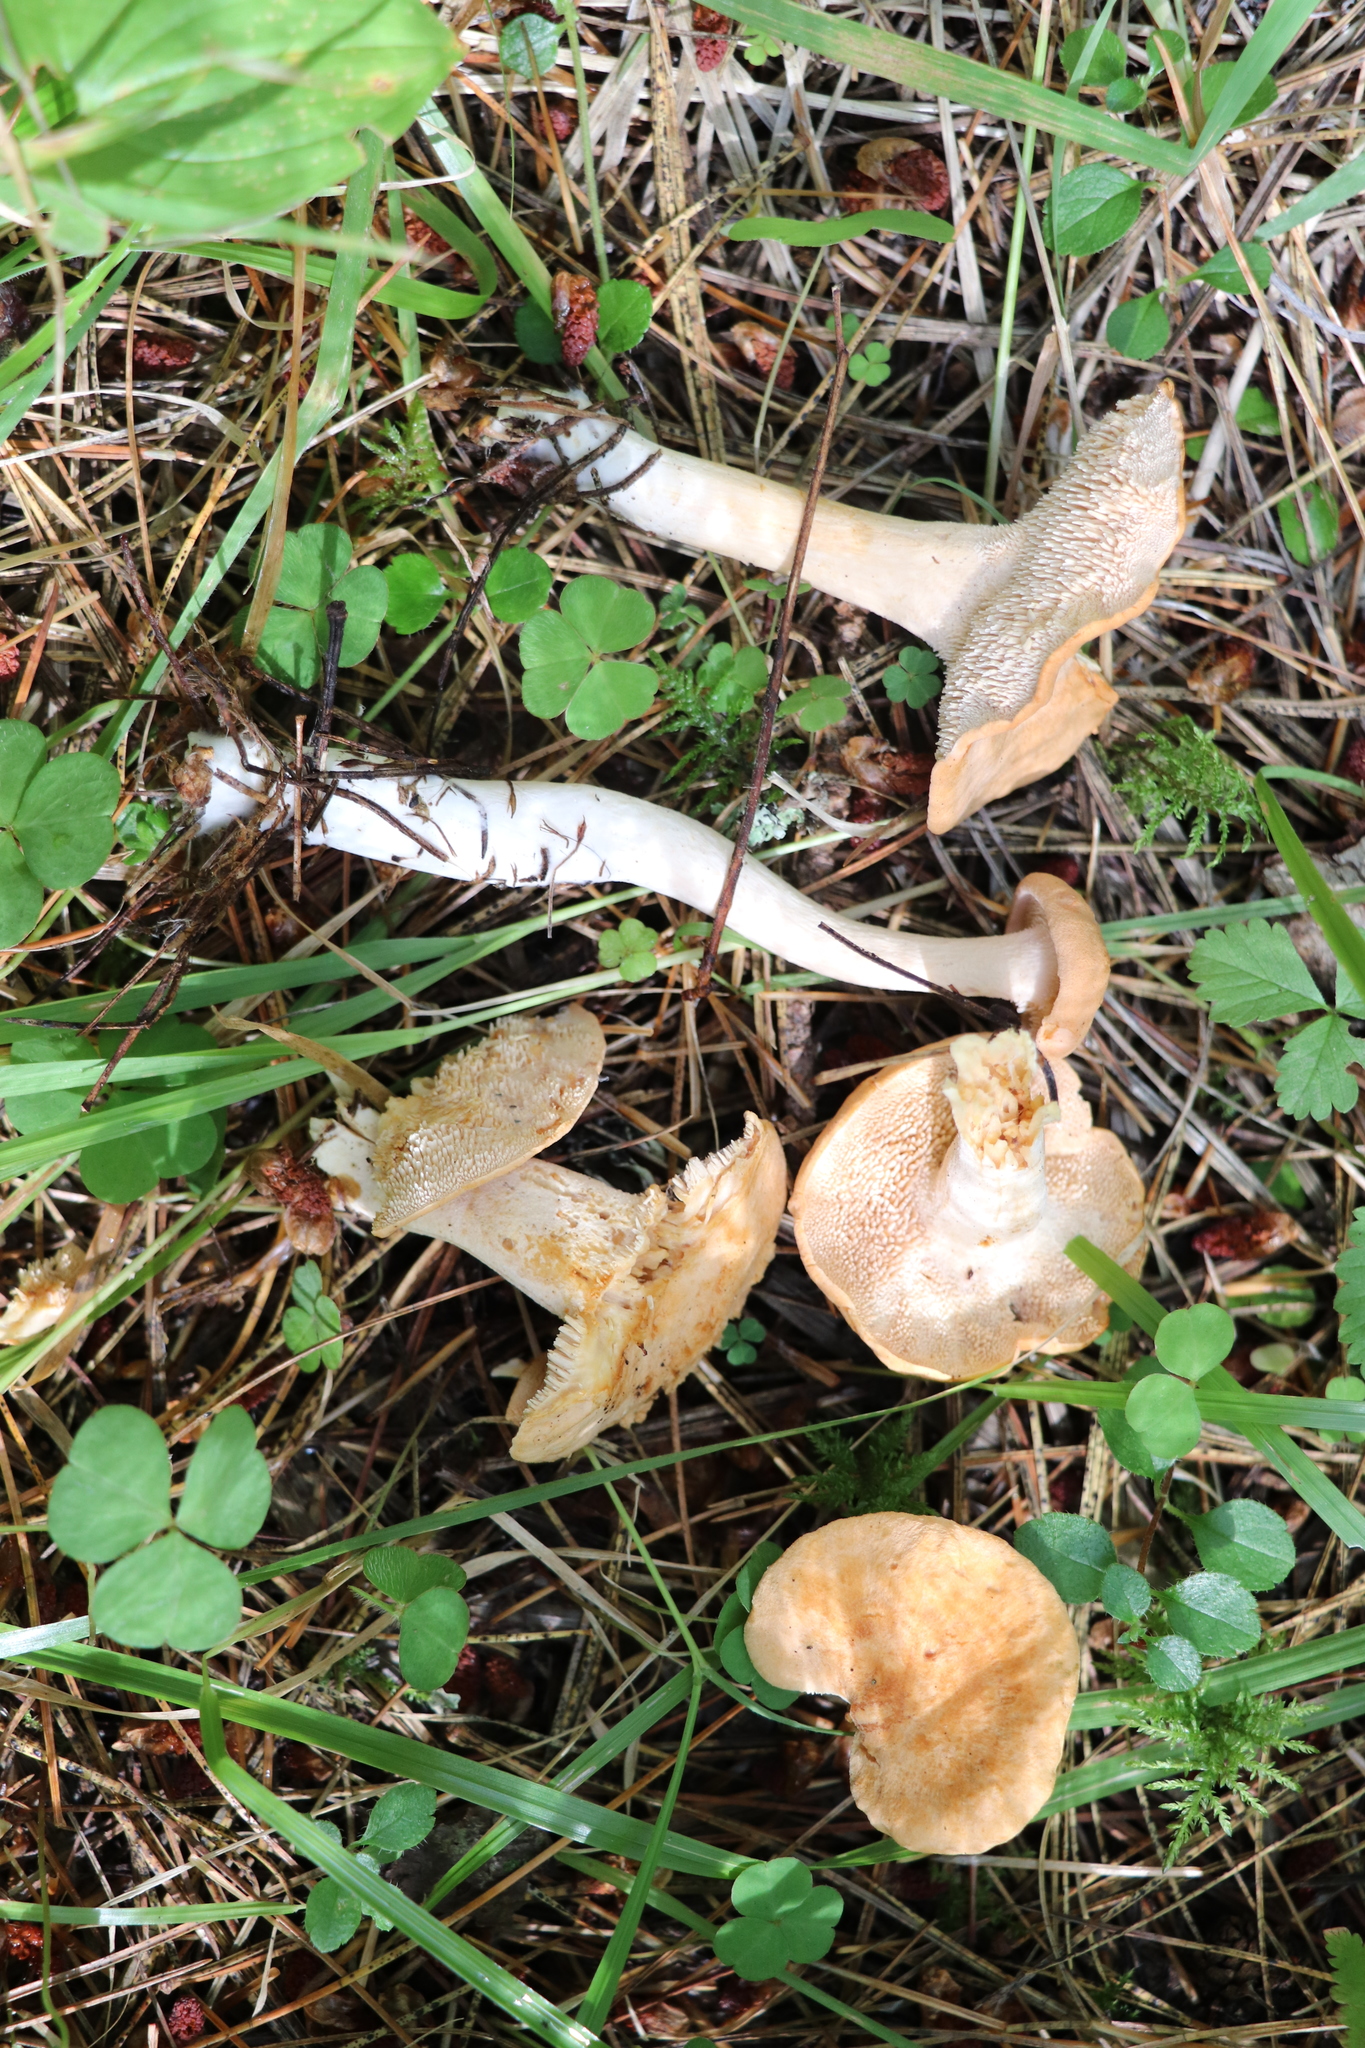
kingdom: Fungi
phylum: Basidiomycota
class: Agaricomycetes
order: Cantharellales
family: Hydnaceae
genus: Hydnum
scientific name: Hydnum rufescens
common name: Terracotta hedgehog
